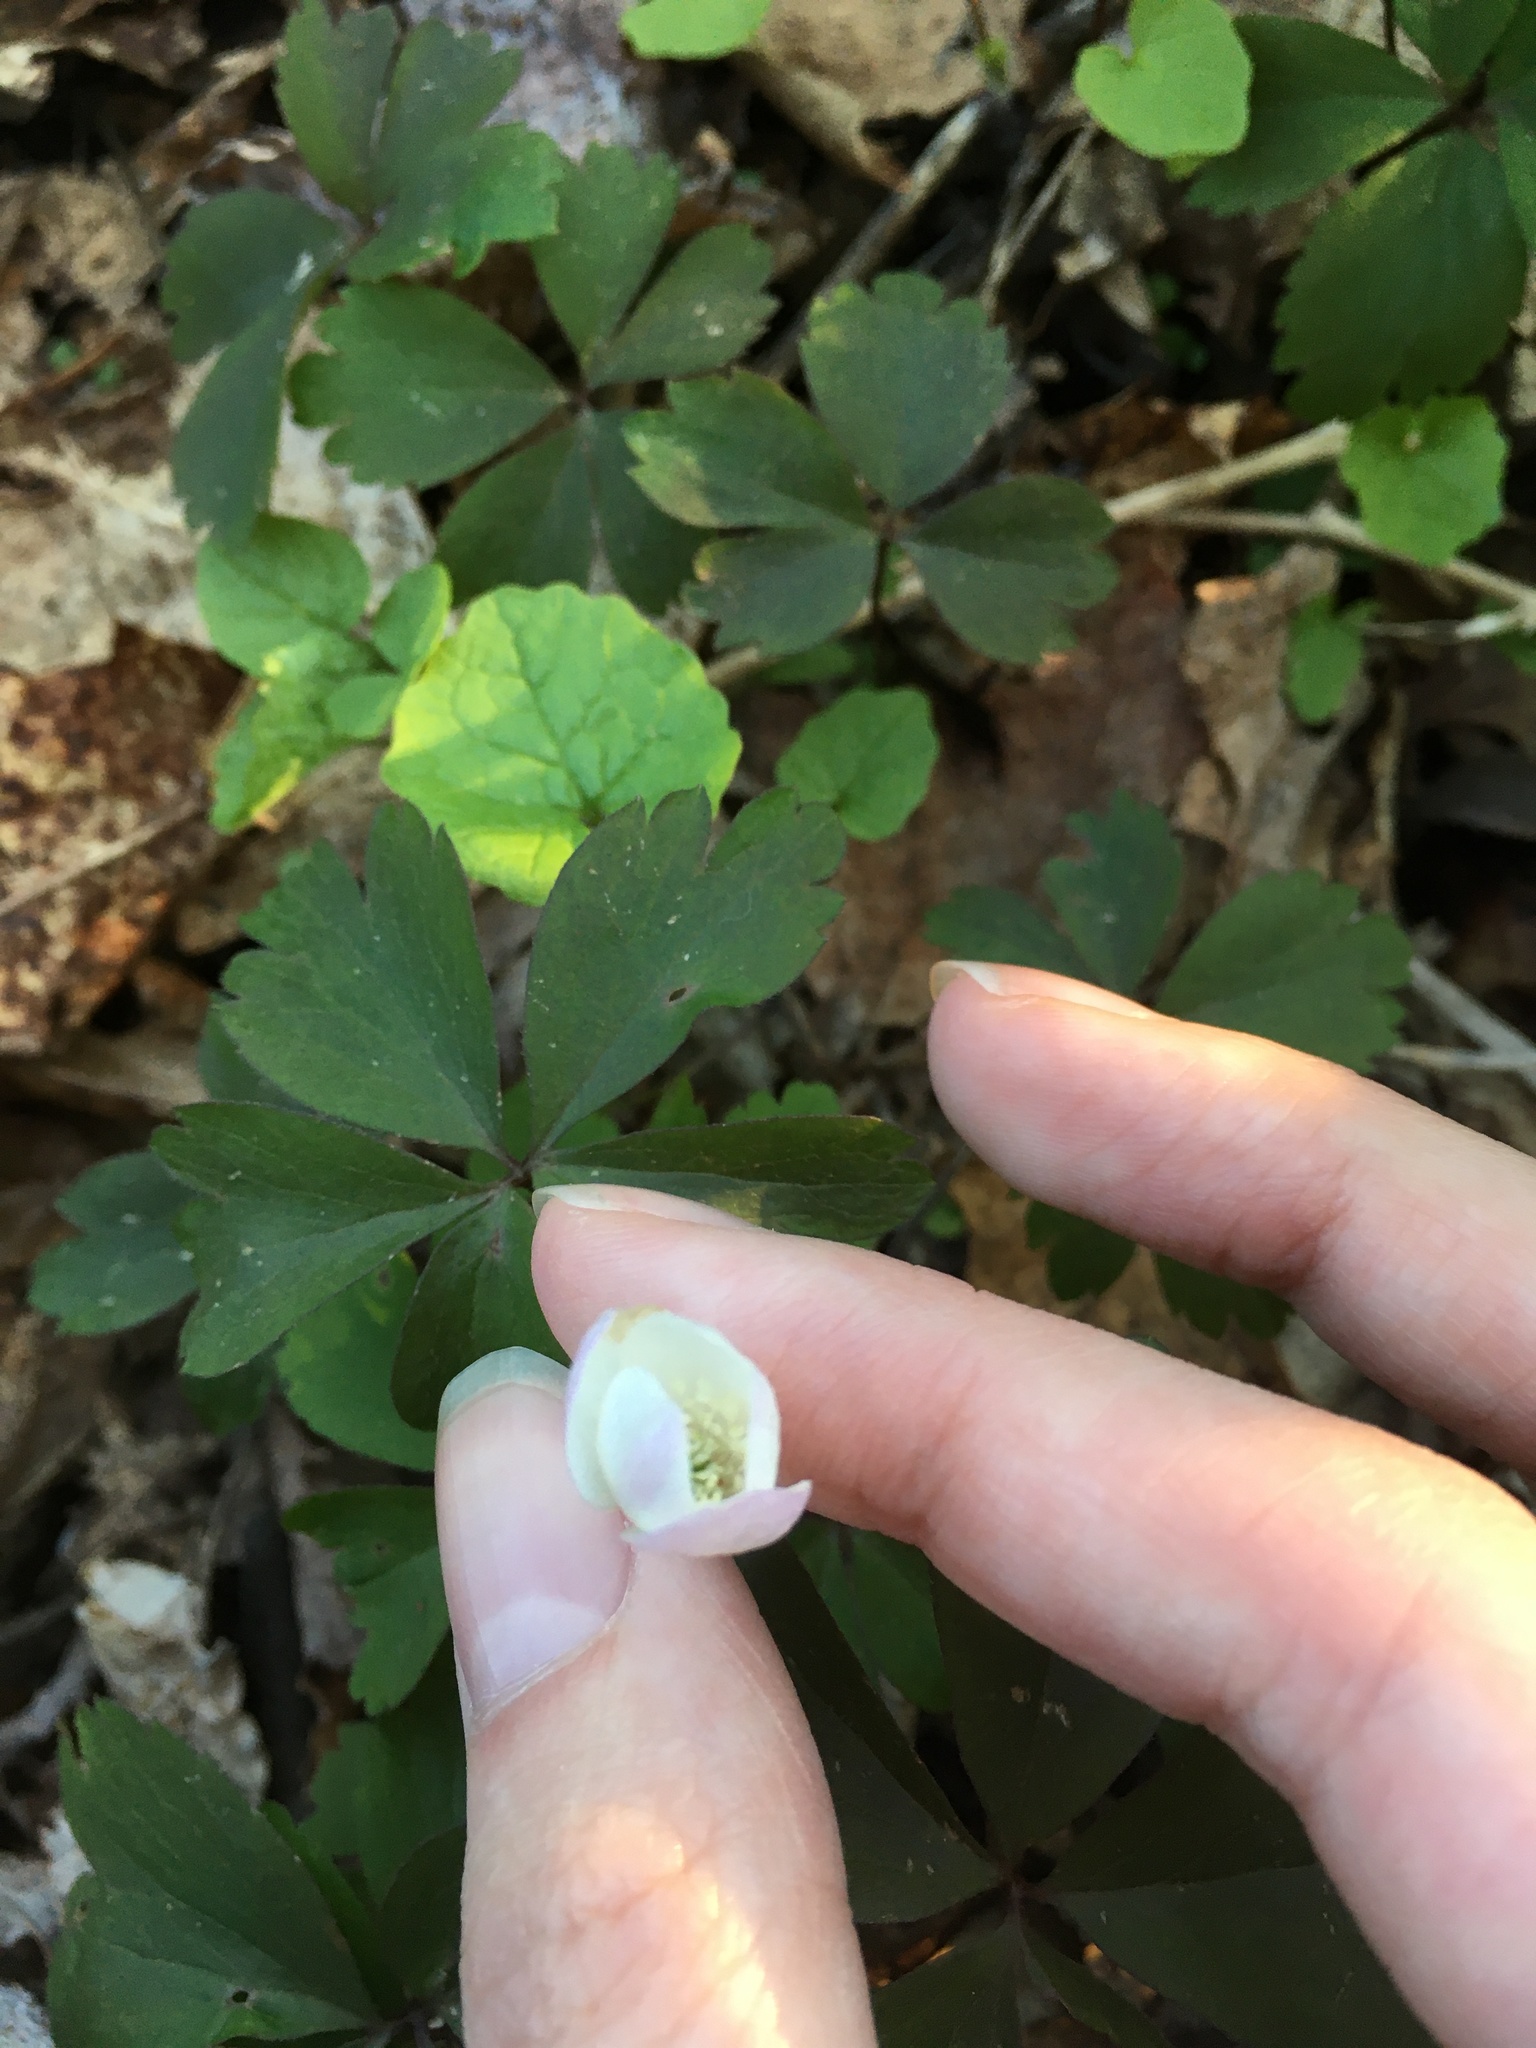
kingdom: Plantae
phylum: Tracheophyta
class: Magnoliopsida
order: Ranunculales
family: Ranunculaceae
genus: Anemone
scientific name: Anemone quinquefolia
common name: Wood anemone
